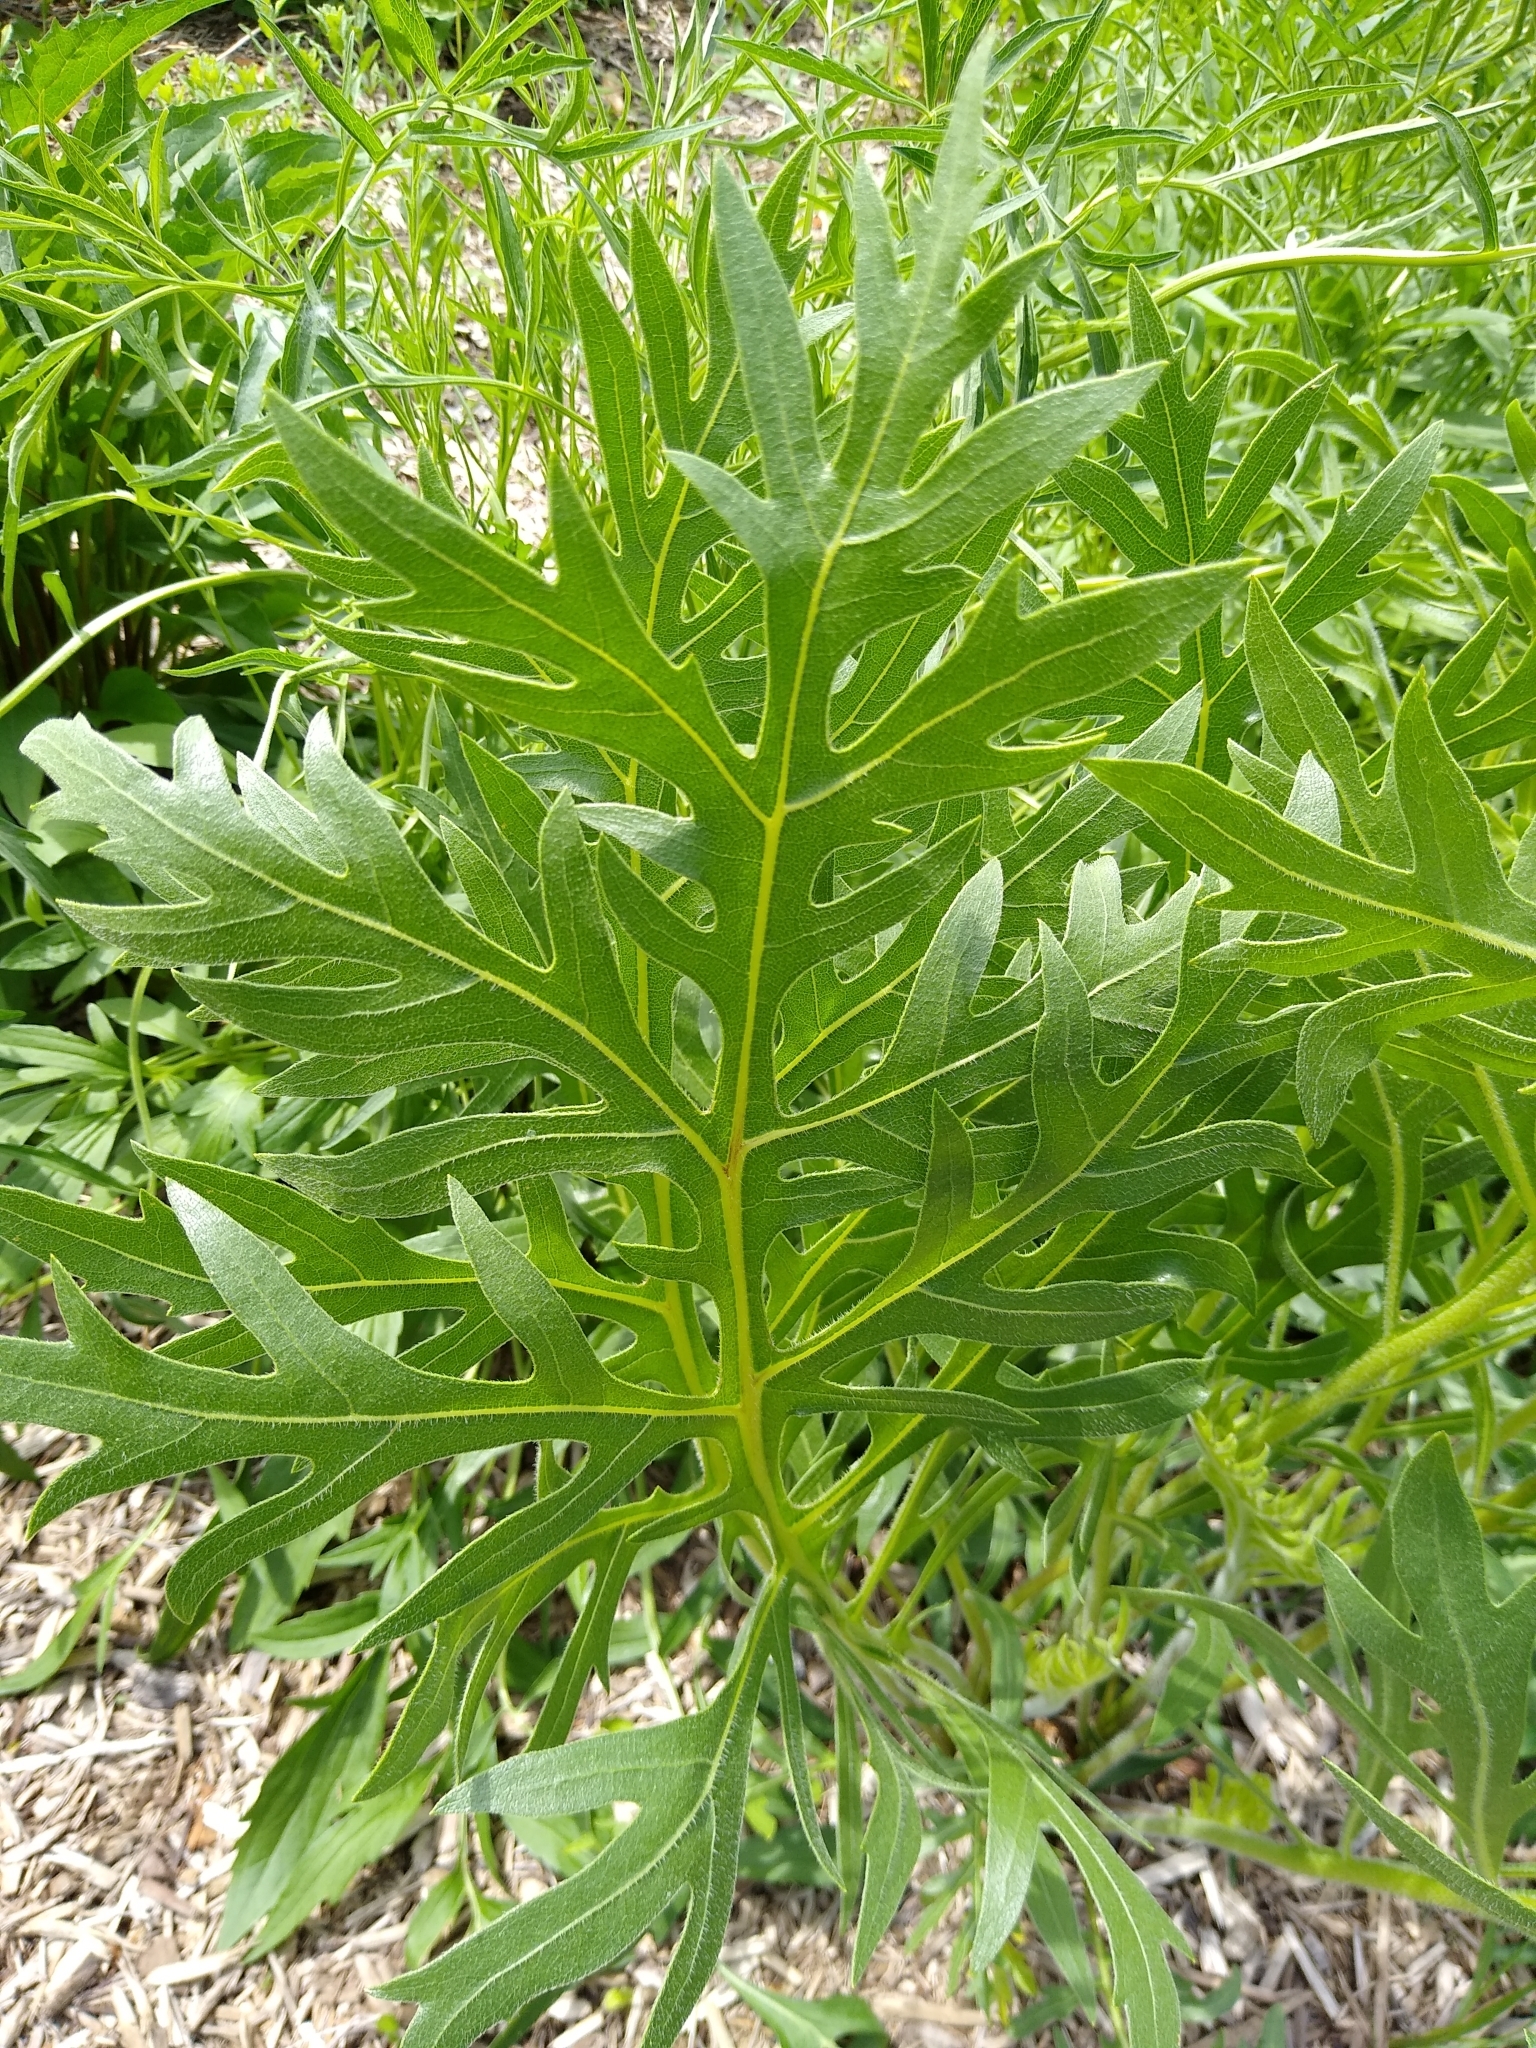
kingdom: Plantae
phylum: Tracheophyta
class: Magnoliopsida
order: Asterales
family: Asteraceae
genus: Silphium
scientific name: Silphium laciniatum
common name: Polarplant
